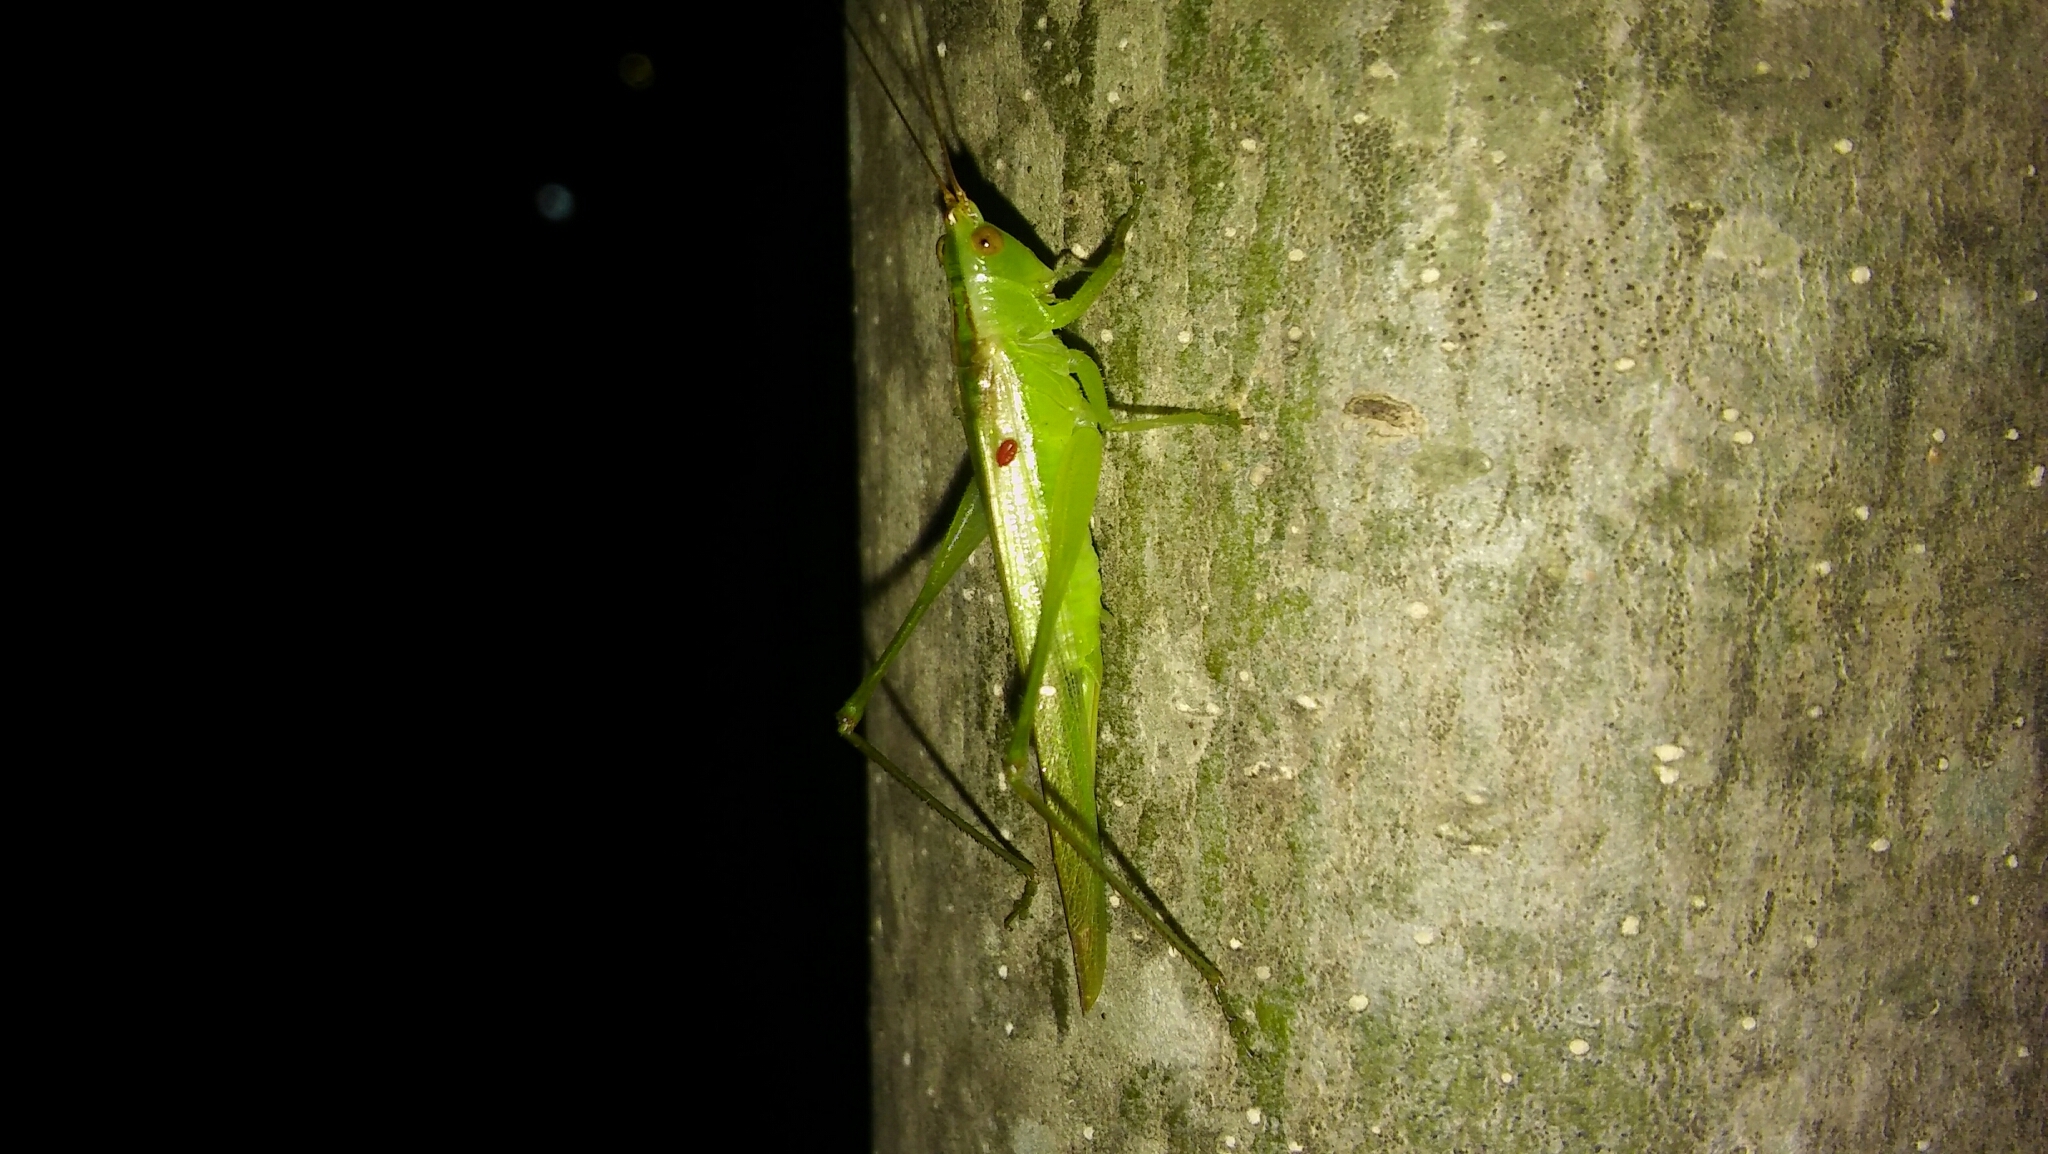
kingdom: Animalia
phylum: Arthropoda
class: Insecta
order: Orthoptera
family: Tettigoniidae
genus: Conocephalus
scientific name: Conocephalus longipes
